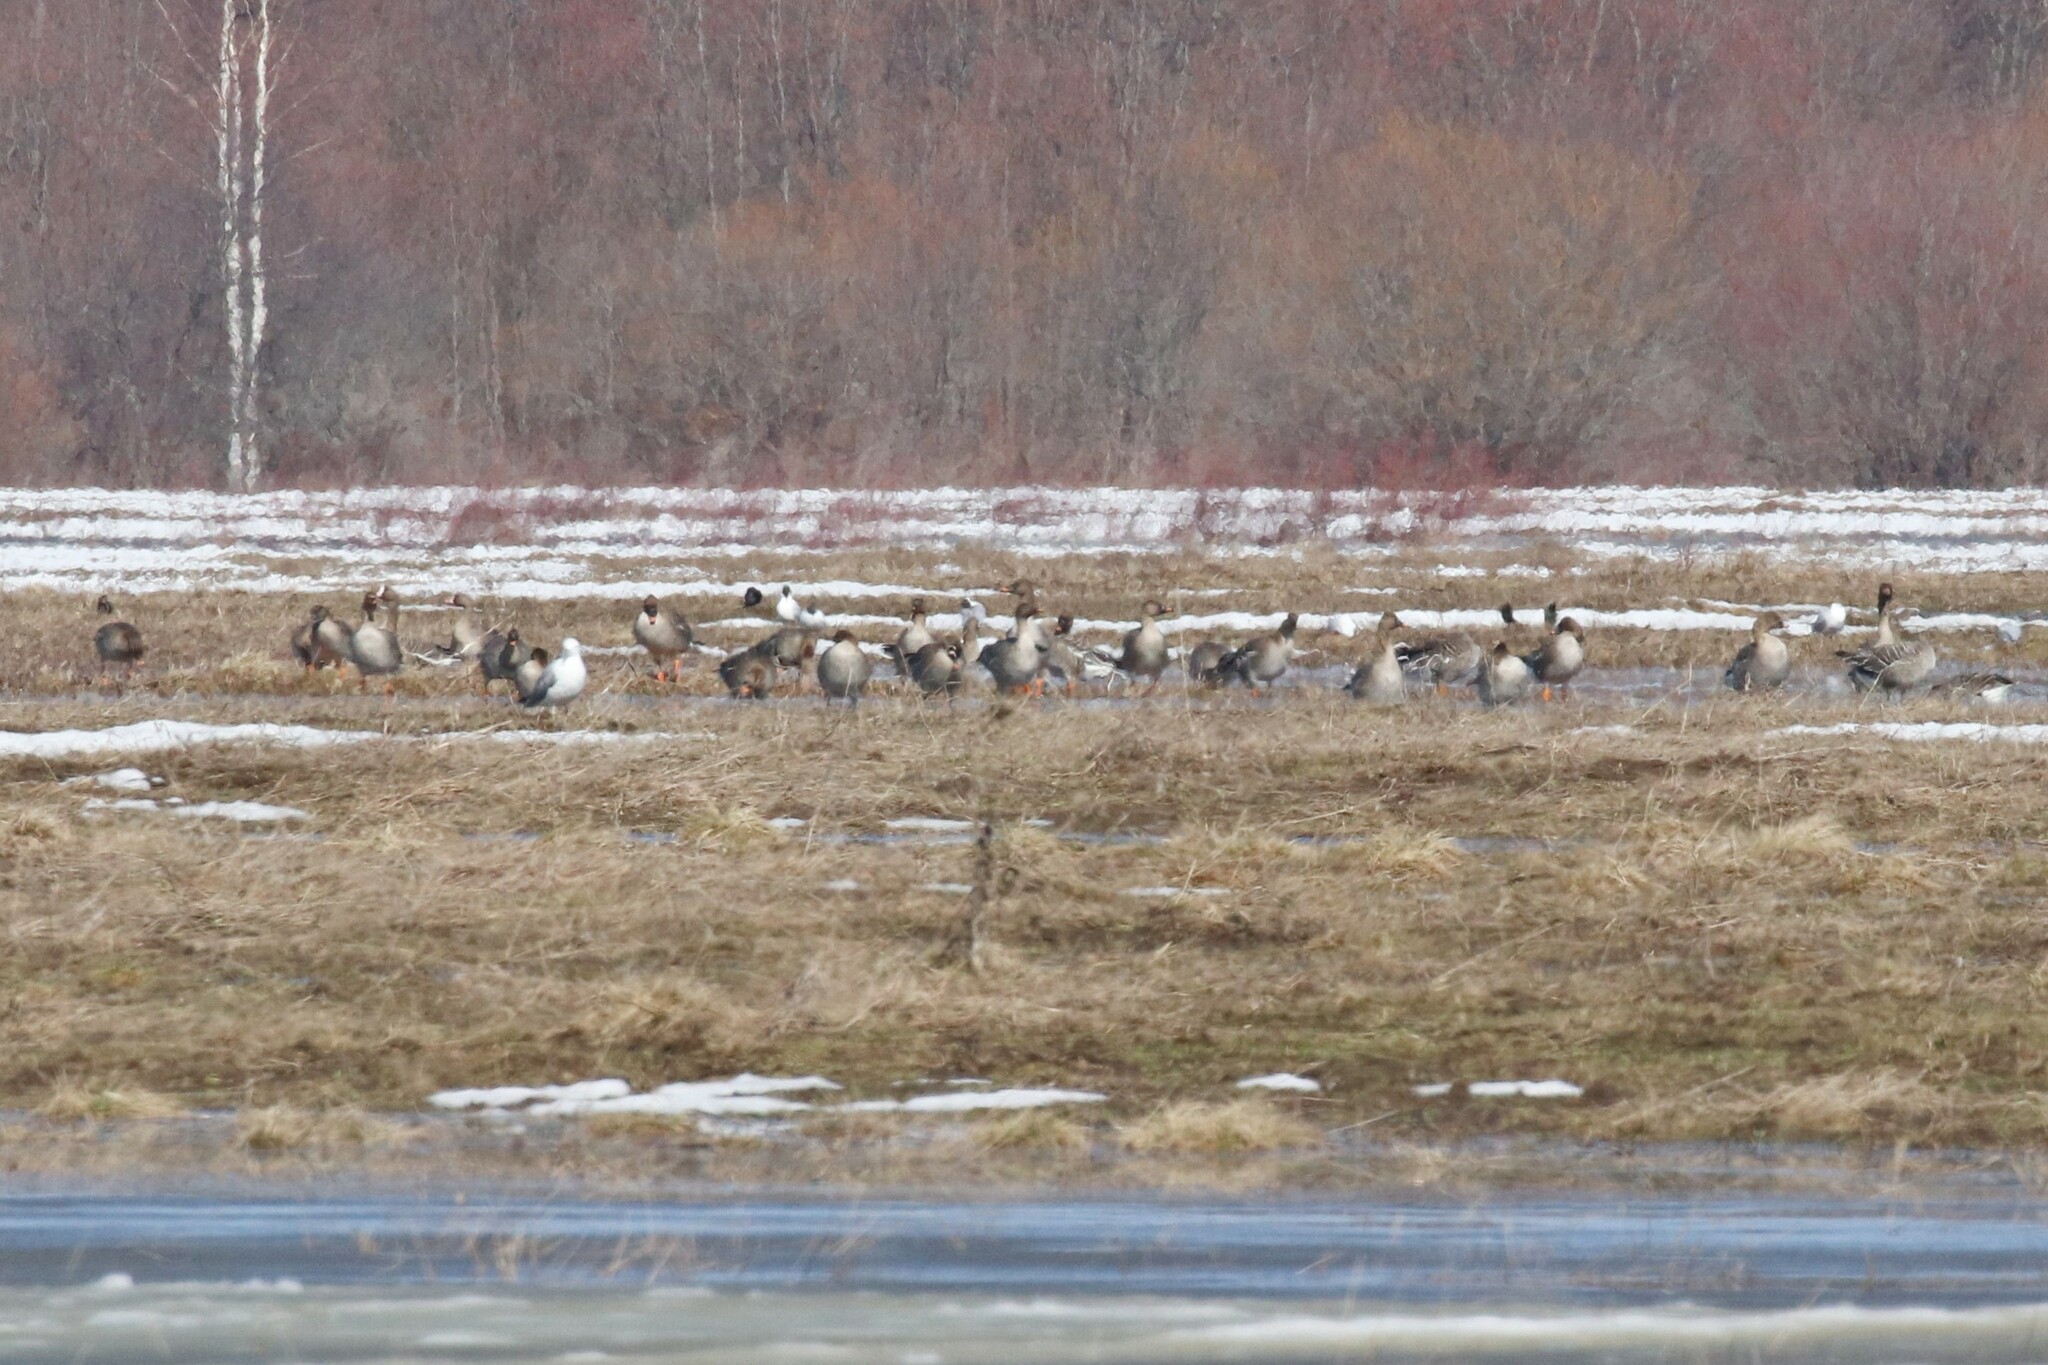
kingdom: Animalia
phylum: Chordata
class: Aves
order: Anseriformes
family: Anatidae
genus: Anser
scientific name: Anser serrirostris
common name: Tundra bean goose
